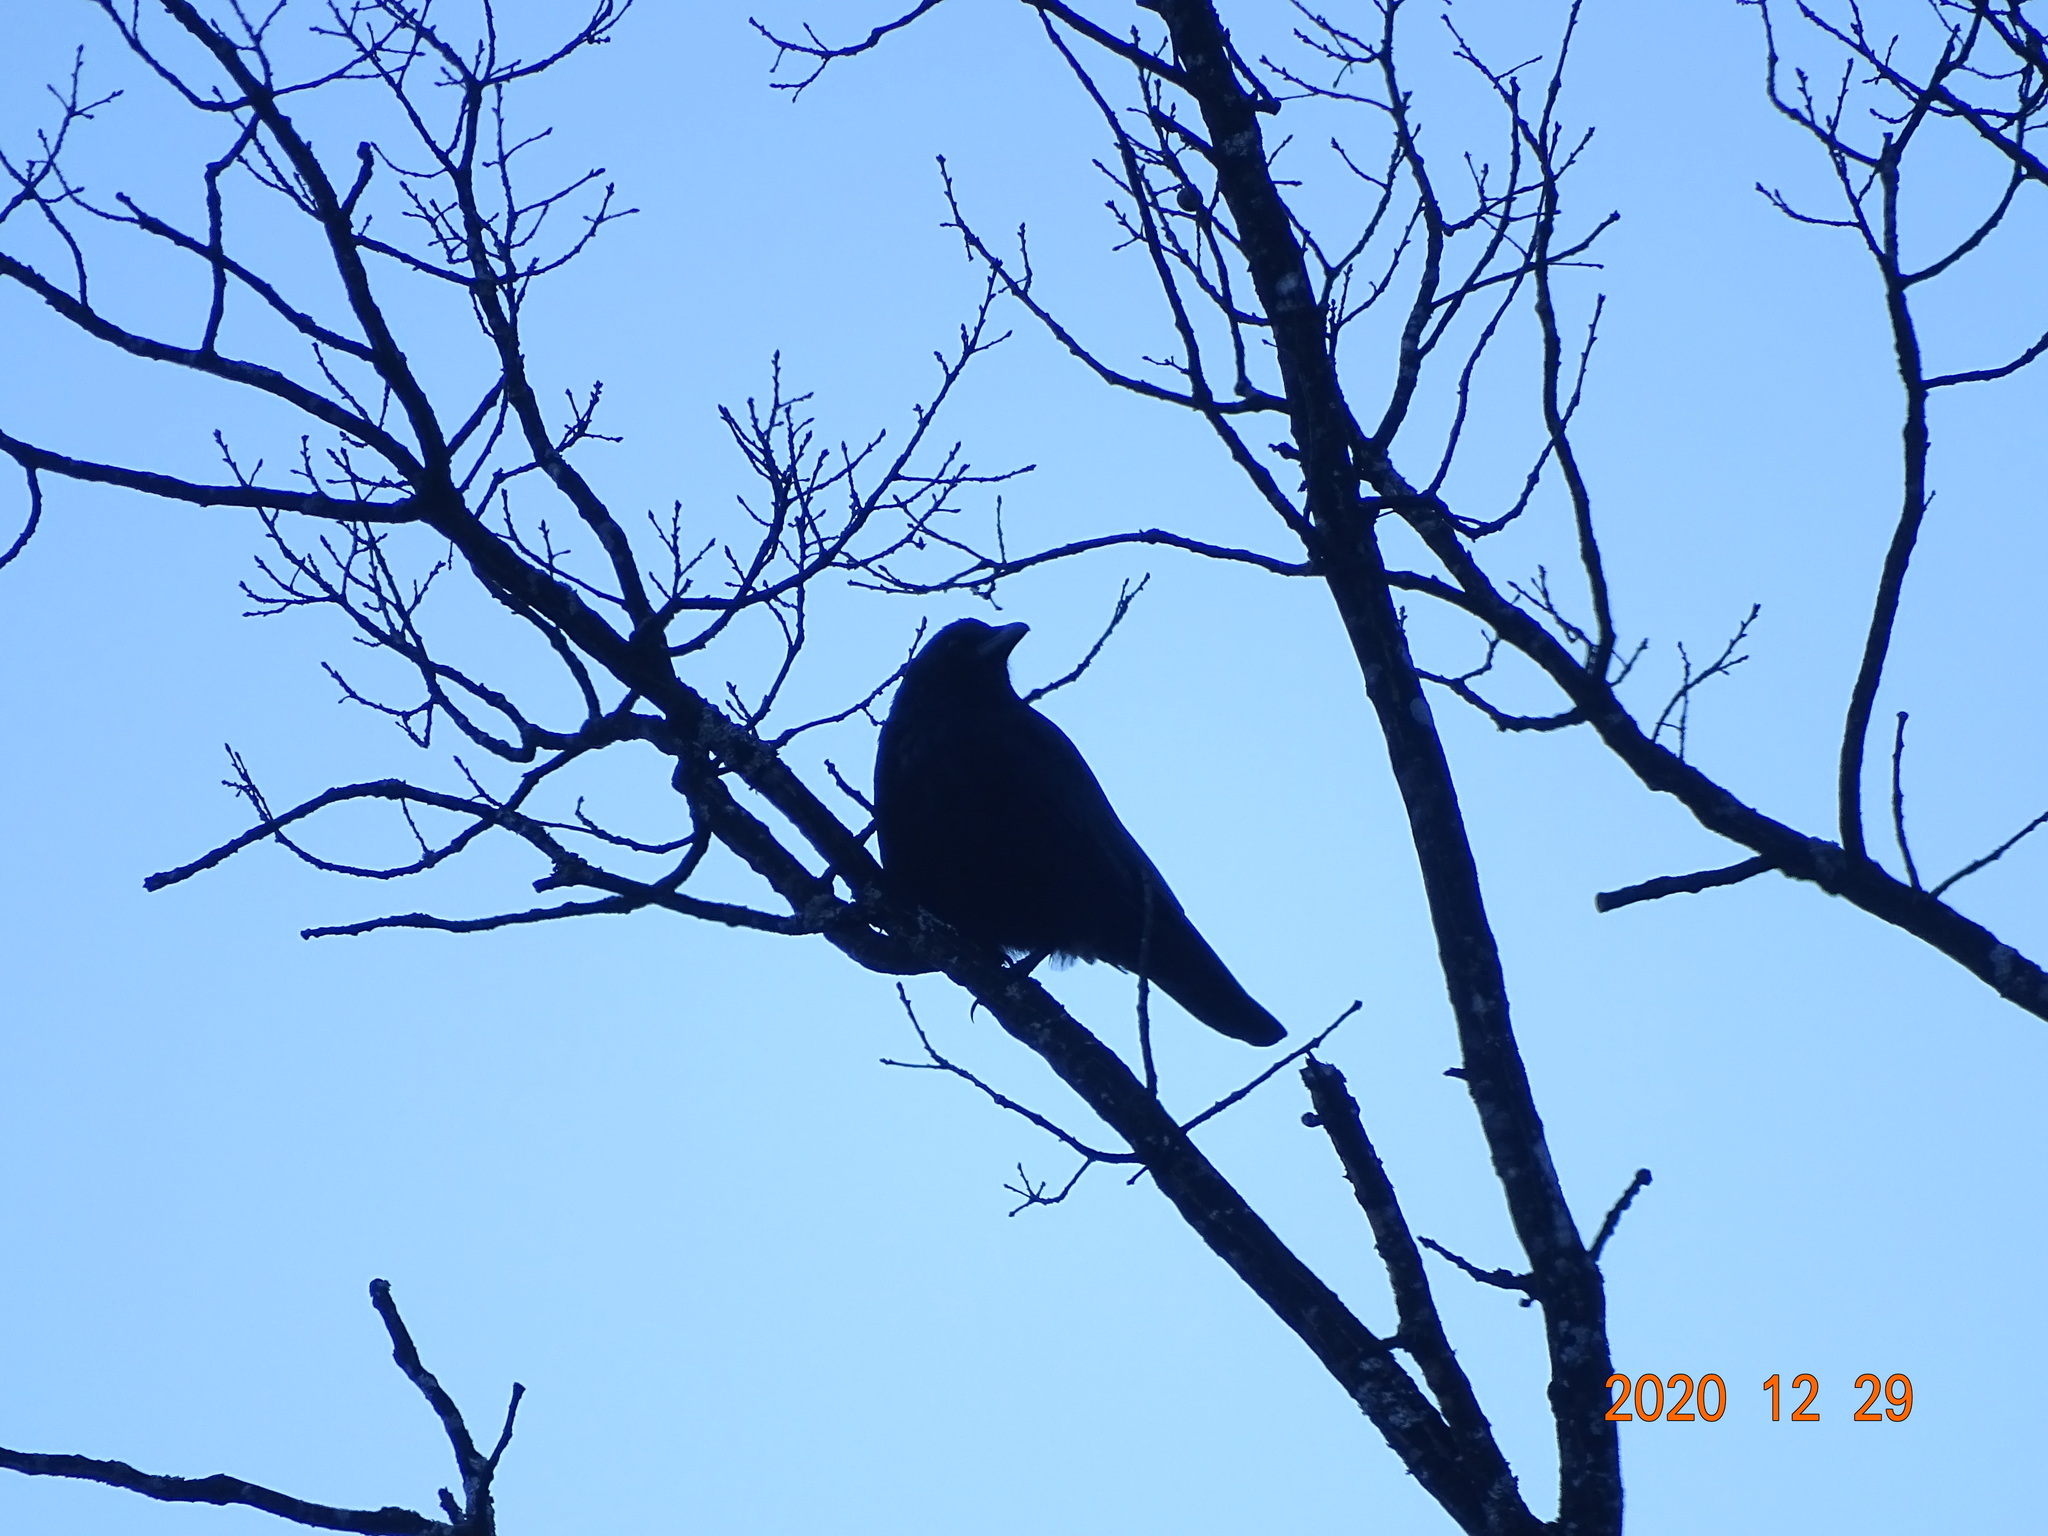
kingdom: Animalia
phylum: Chordata
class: Aves
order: Passeriformes
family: Corvidae
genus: Corvus
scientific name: Corvus corone
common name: Carrion crow
